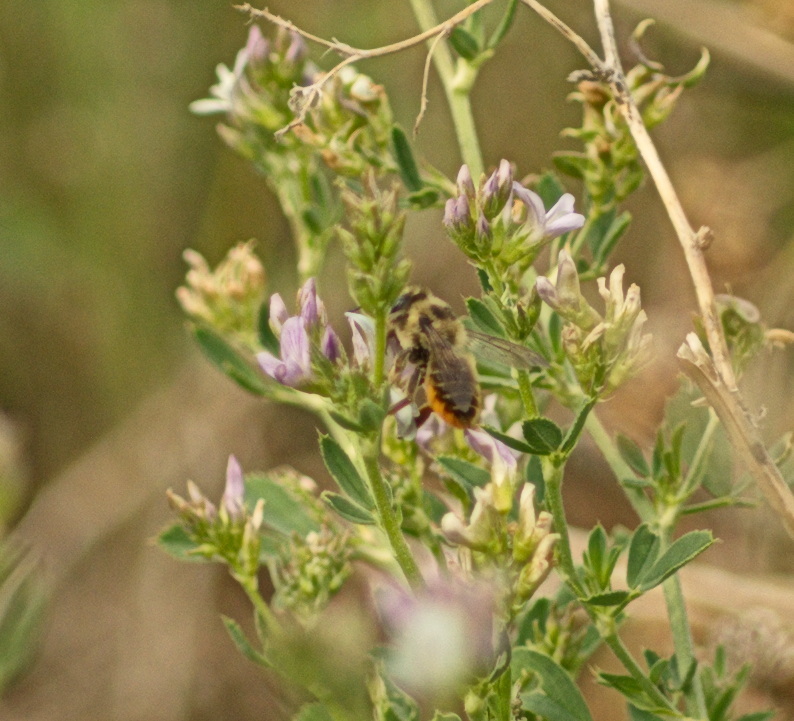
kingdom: Animalia
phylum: Arthropoda
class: Insecta
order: Hymenoptera
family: Megachilidae
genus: Xanthosarus
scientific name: Xanthosarus
